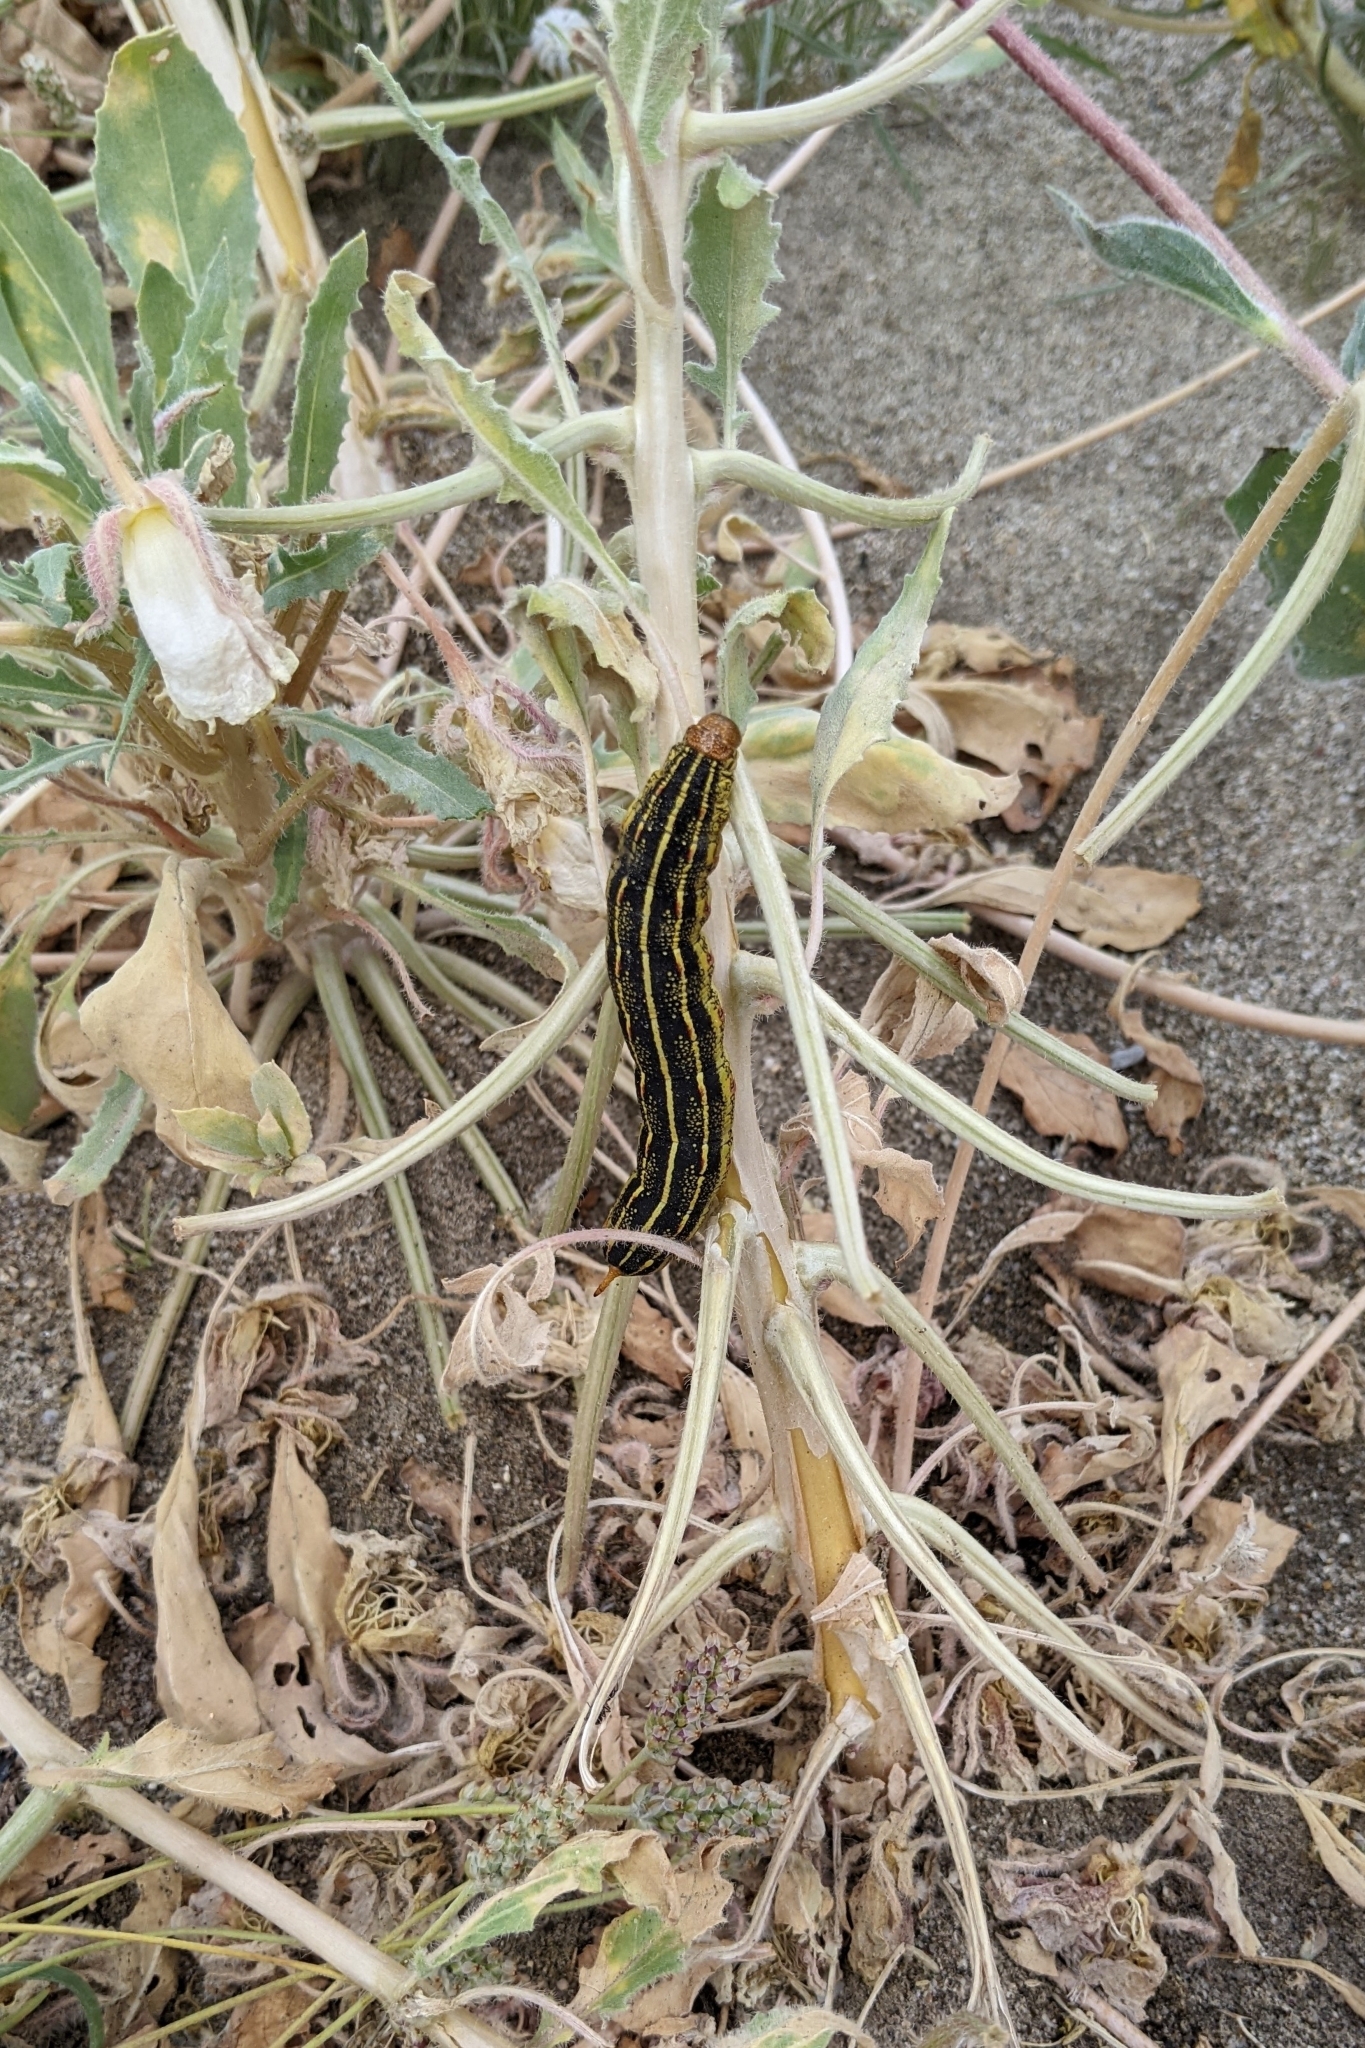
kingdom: Animalia
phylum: Arthropoda
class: Insecta
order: Lepidoptera
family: Sphingidae
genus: Hyles
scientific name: Hyles lineata
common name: White-lined sphinx
